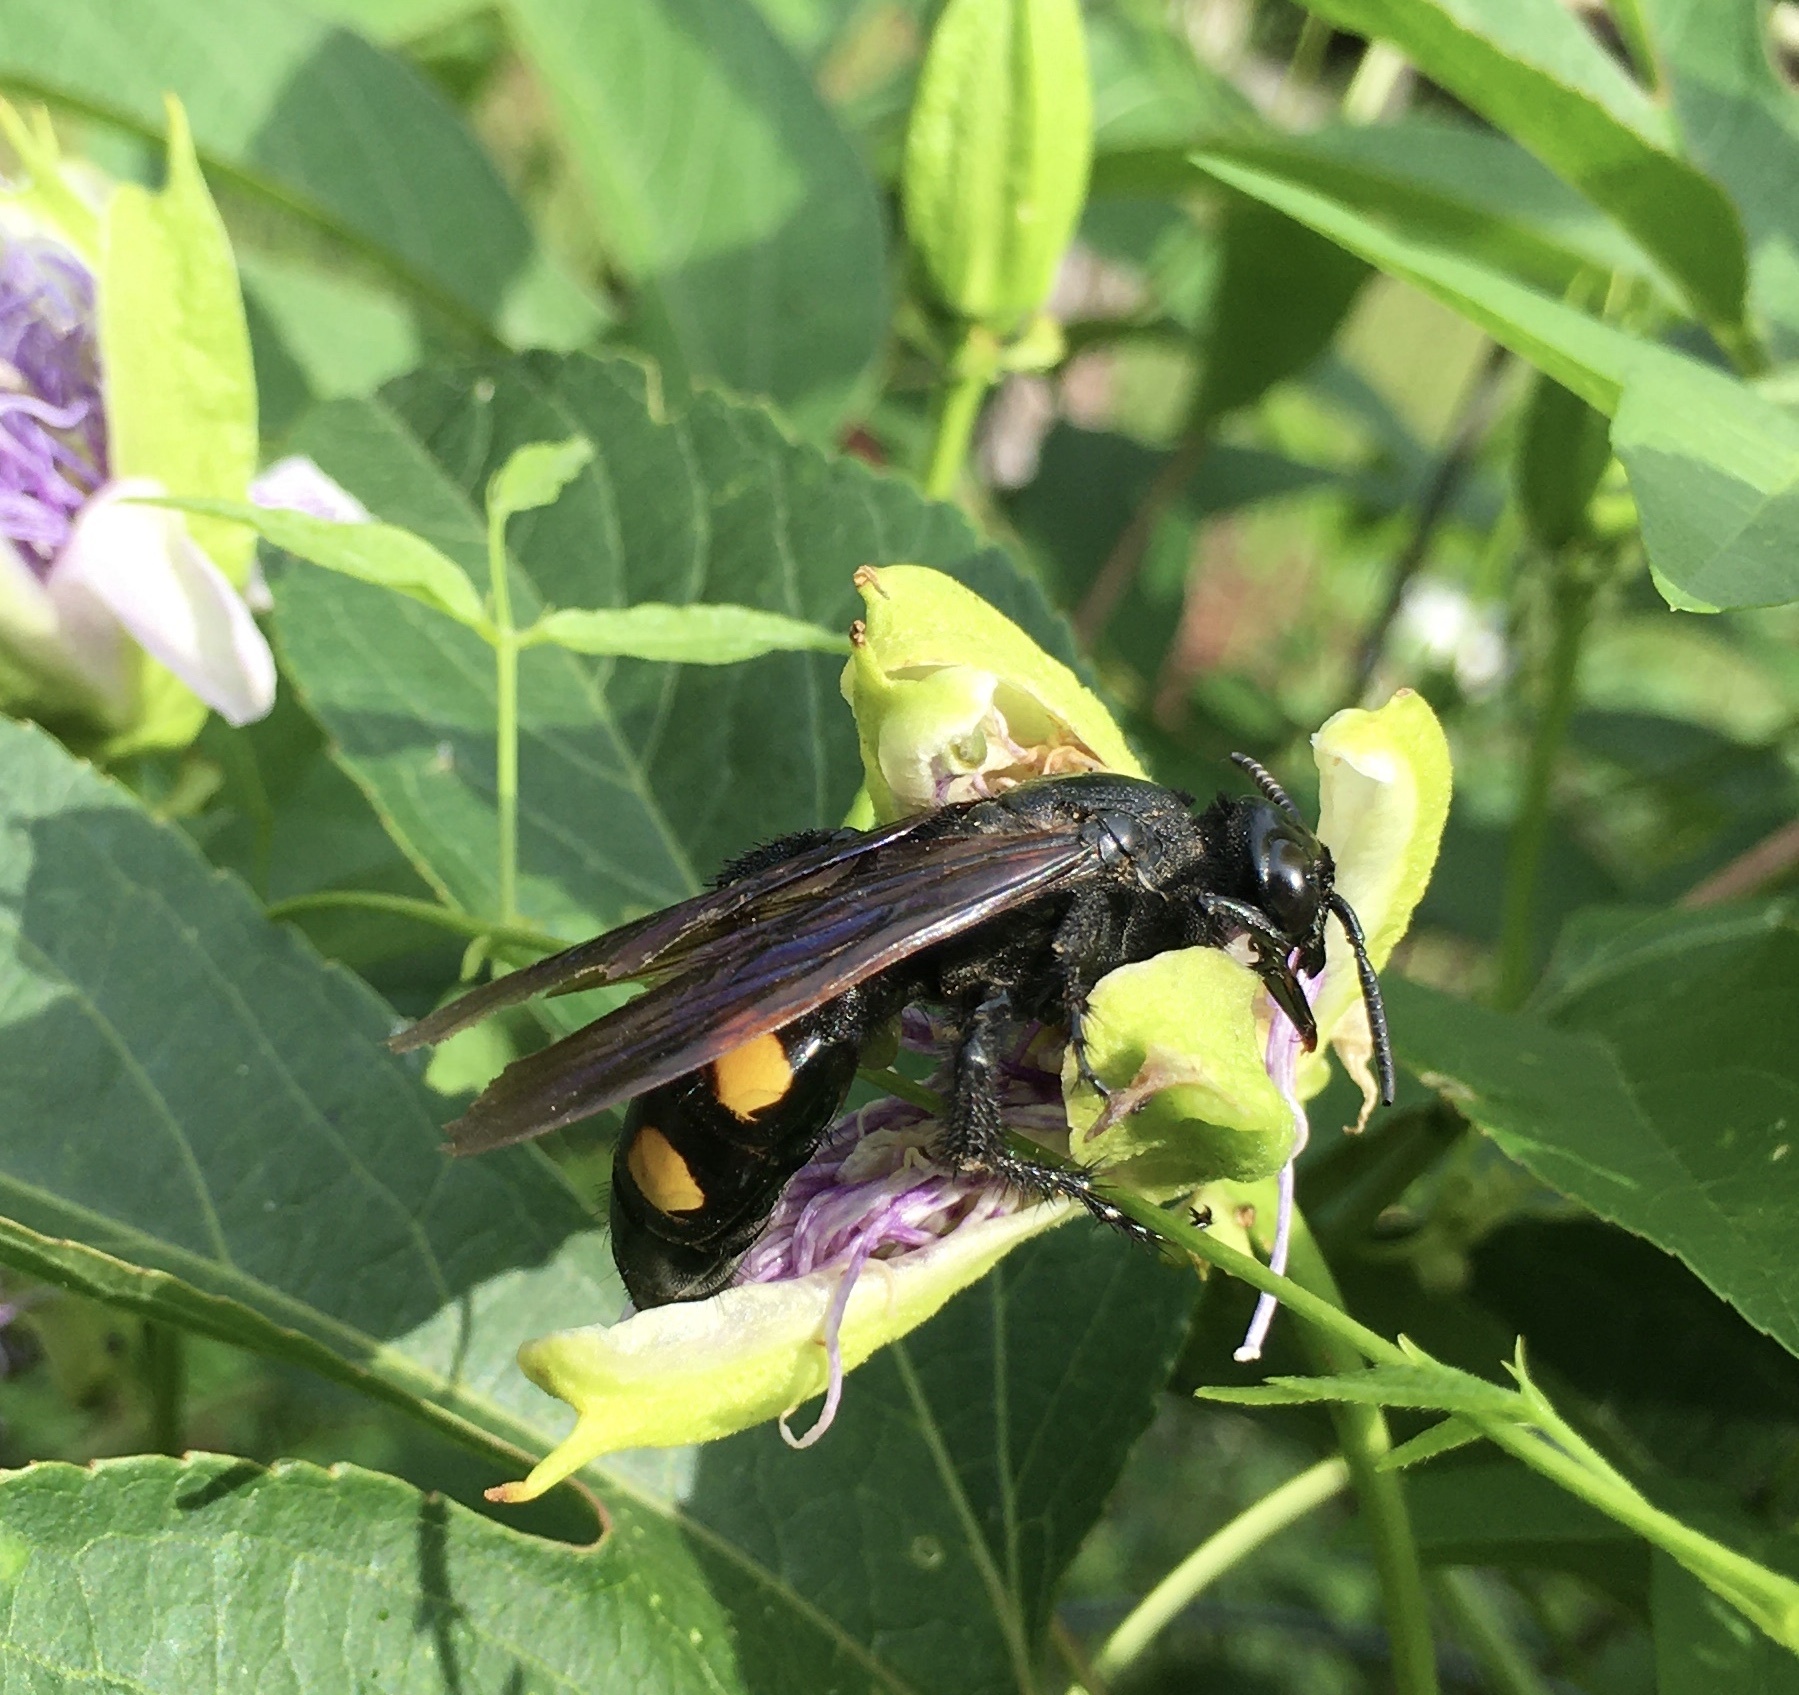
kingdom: Animalia
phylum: Arthropoda
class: Insecta
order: Hymenoptera
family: Scoliidae
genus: Pygodasis
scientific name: Pygodasis
